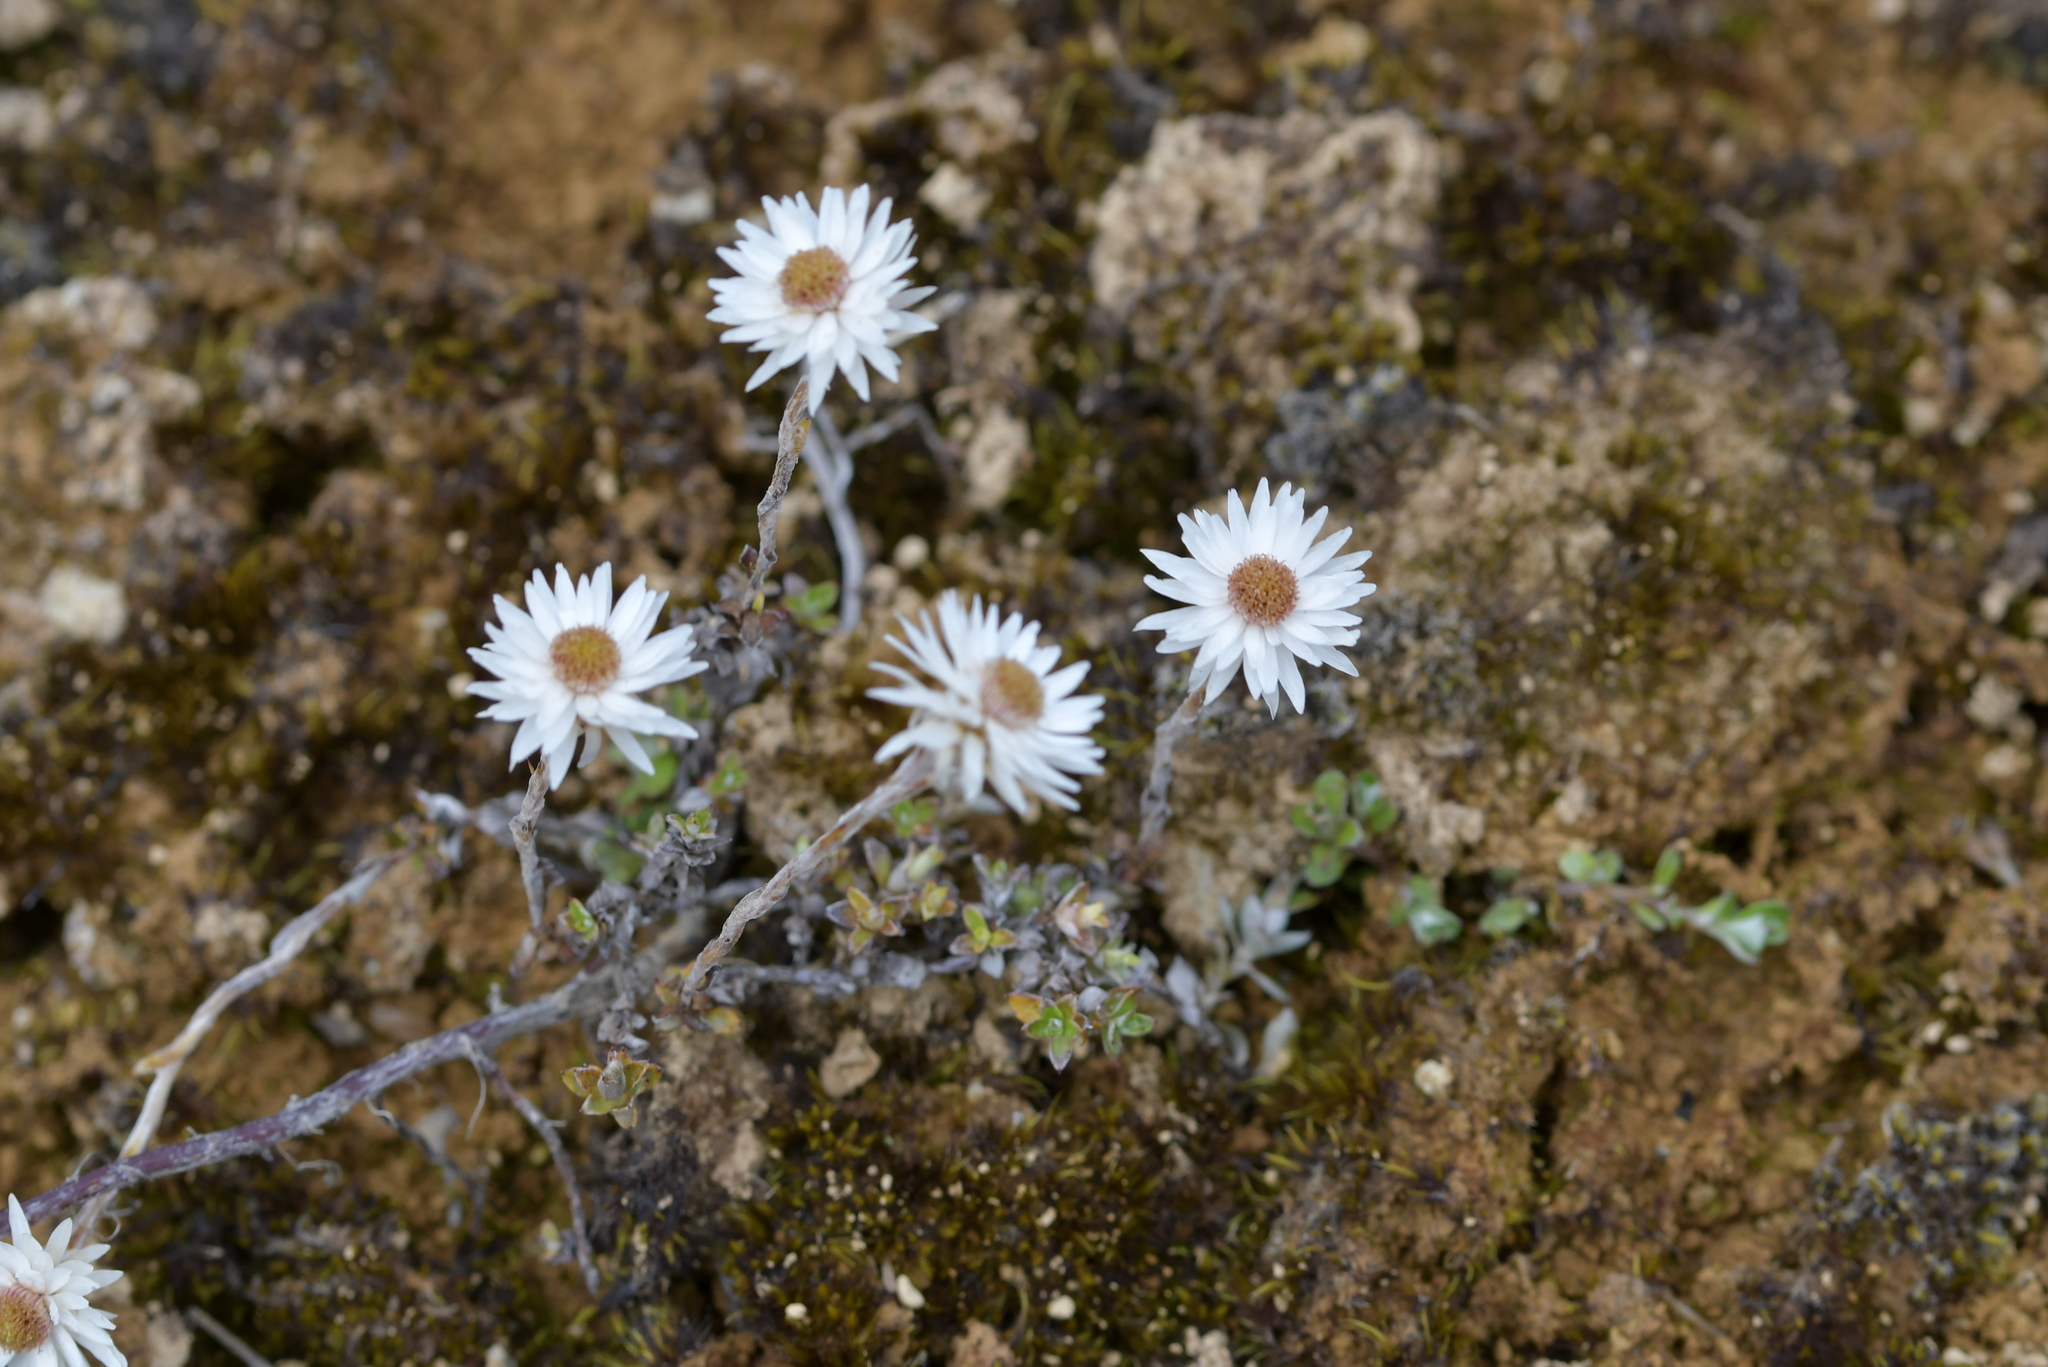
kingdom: Plantae
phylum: Tracheophyta
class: Magnoliopsida
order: Asterales
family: Asteraceae
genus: Anaphalioides
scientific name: Anaphalioides bellidioides
